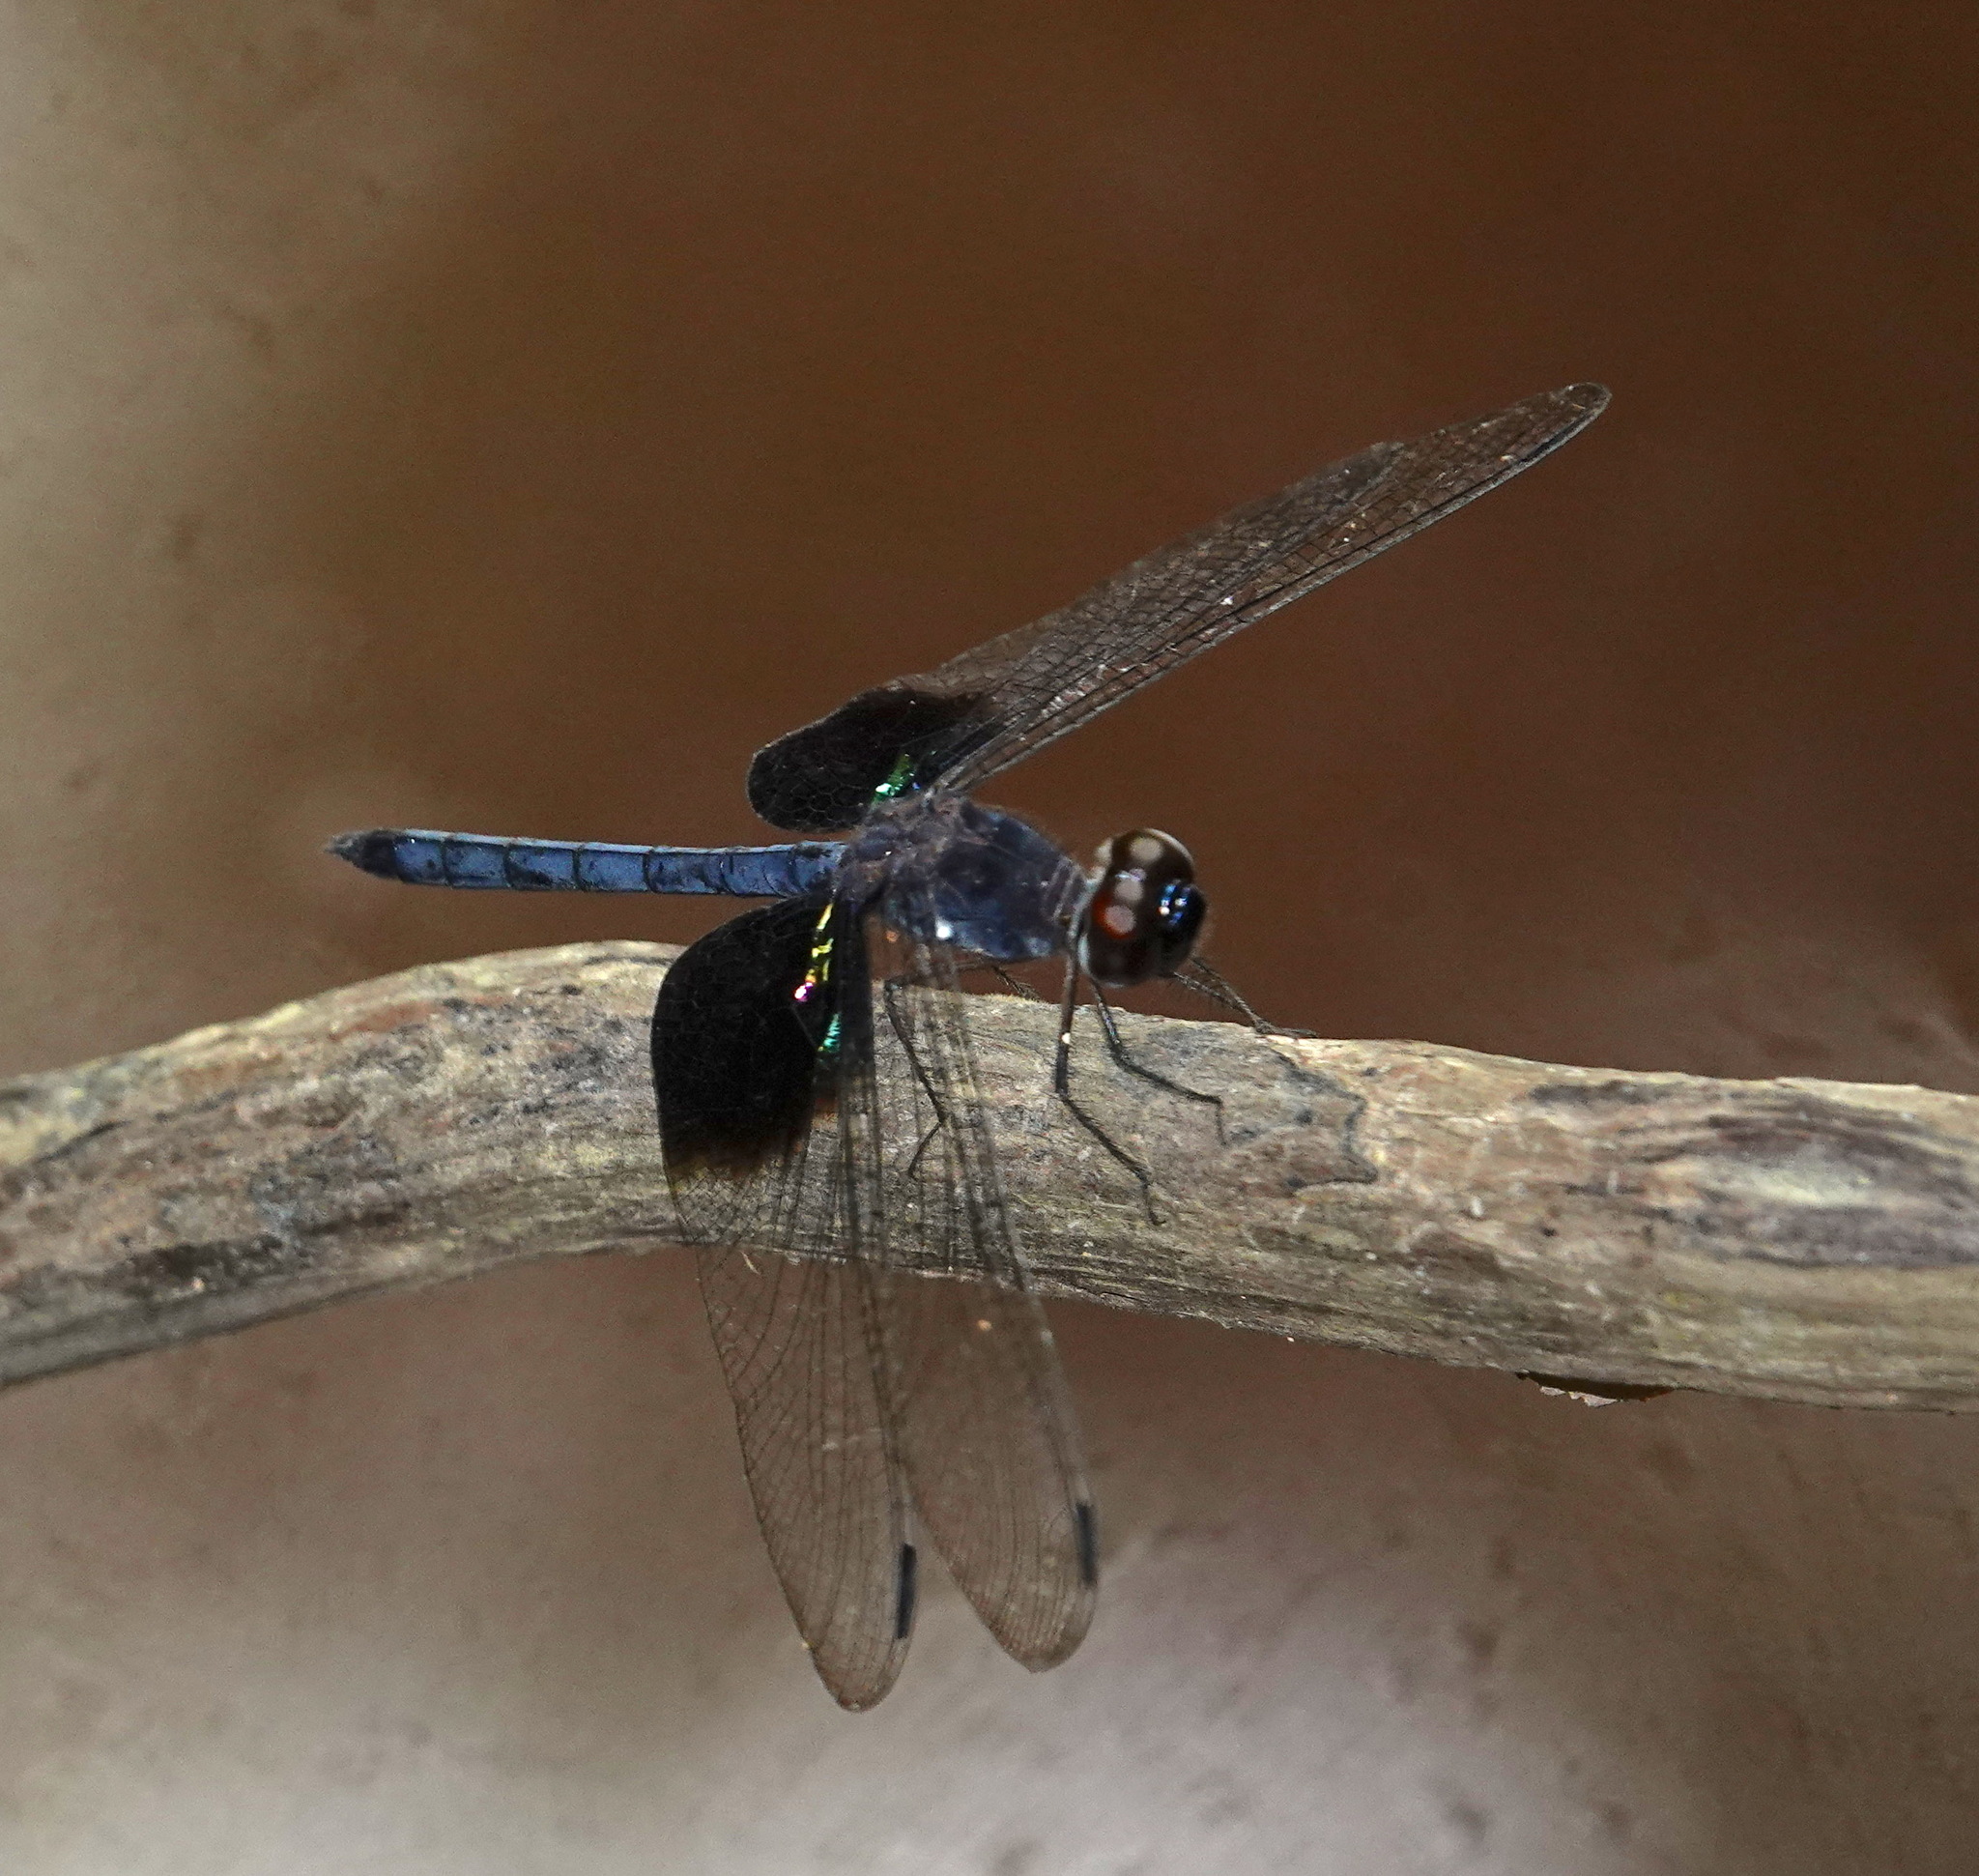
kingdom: Animalia
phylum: Arthropoda
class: Insecta
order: Odonata
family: Libellulidae
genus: Tyriobapta
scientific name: Tyriobapta torrida
